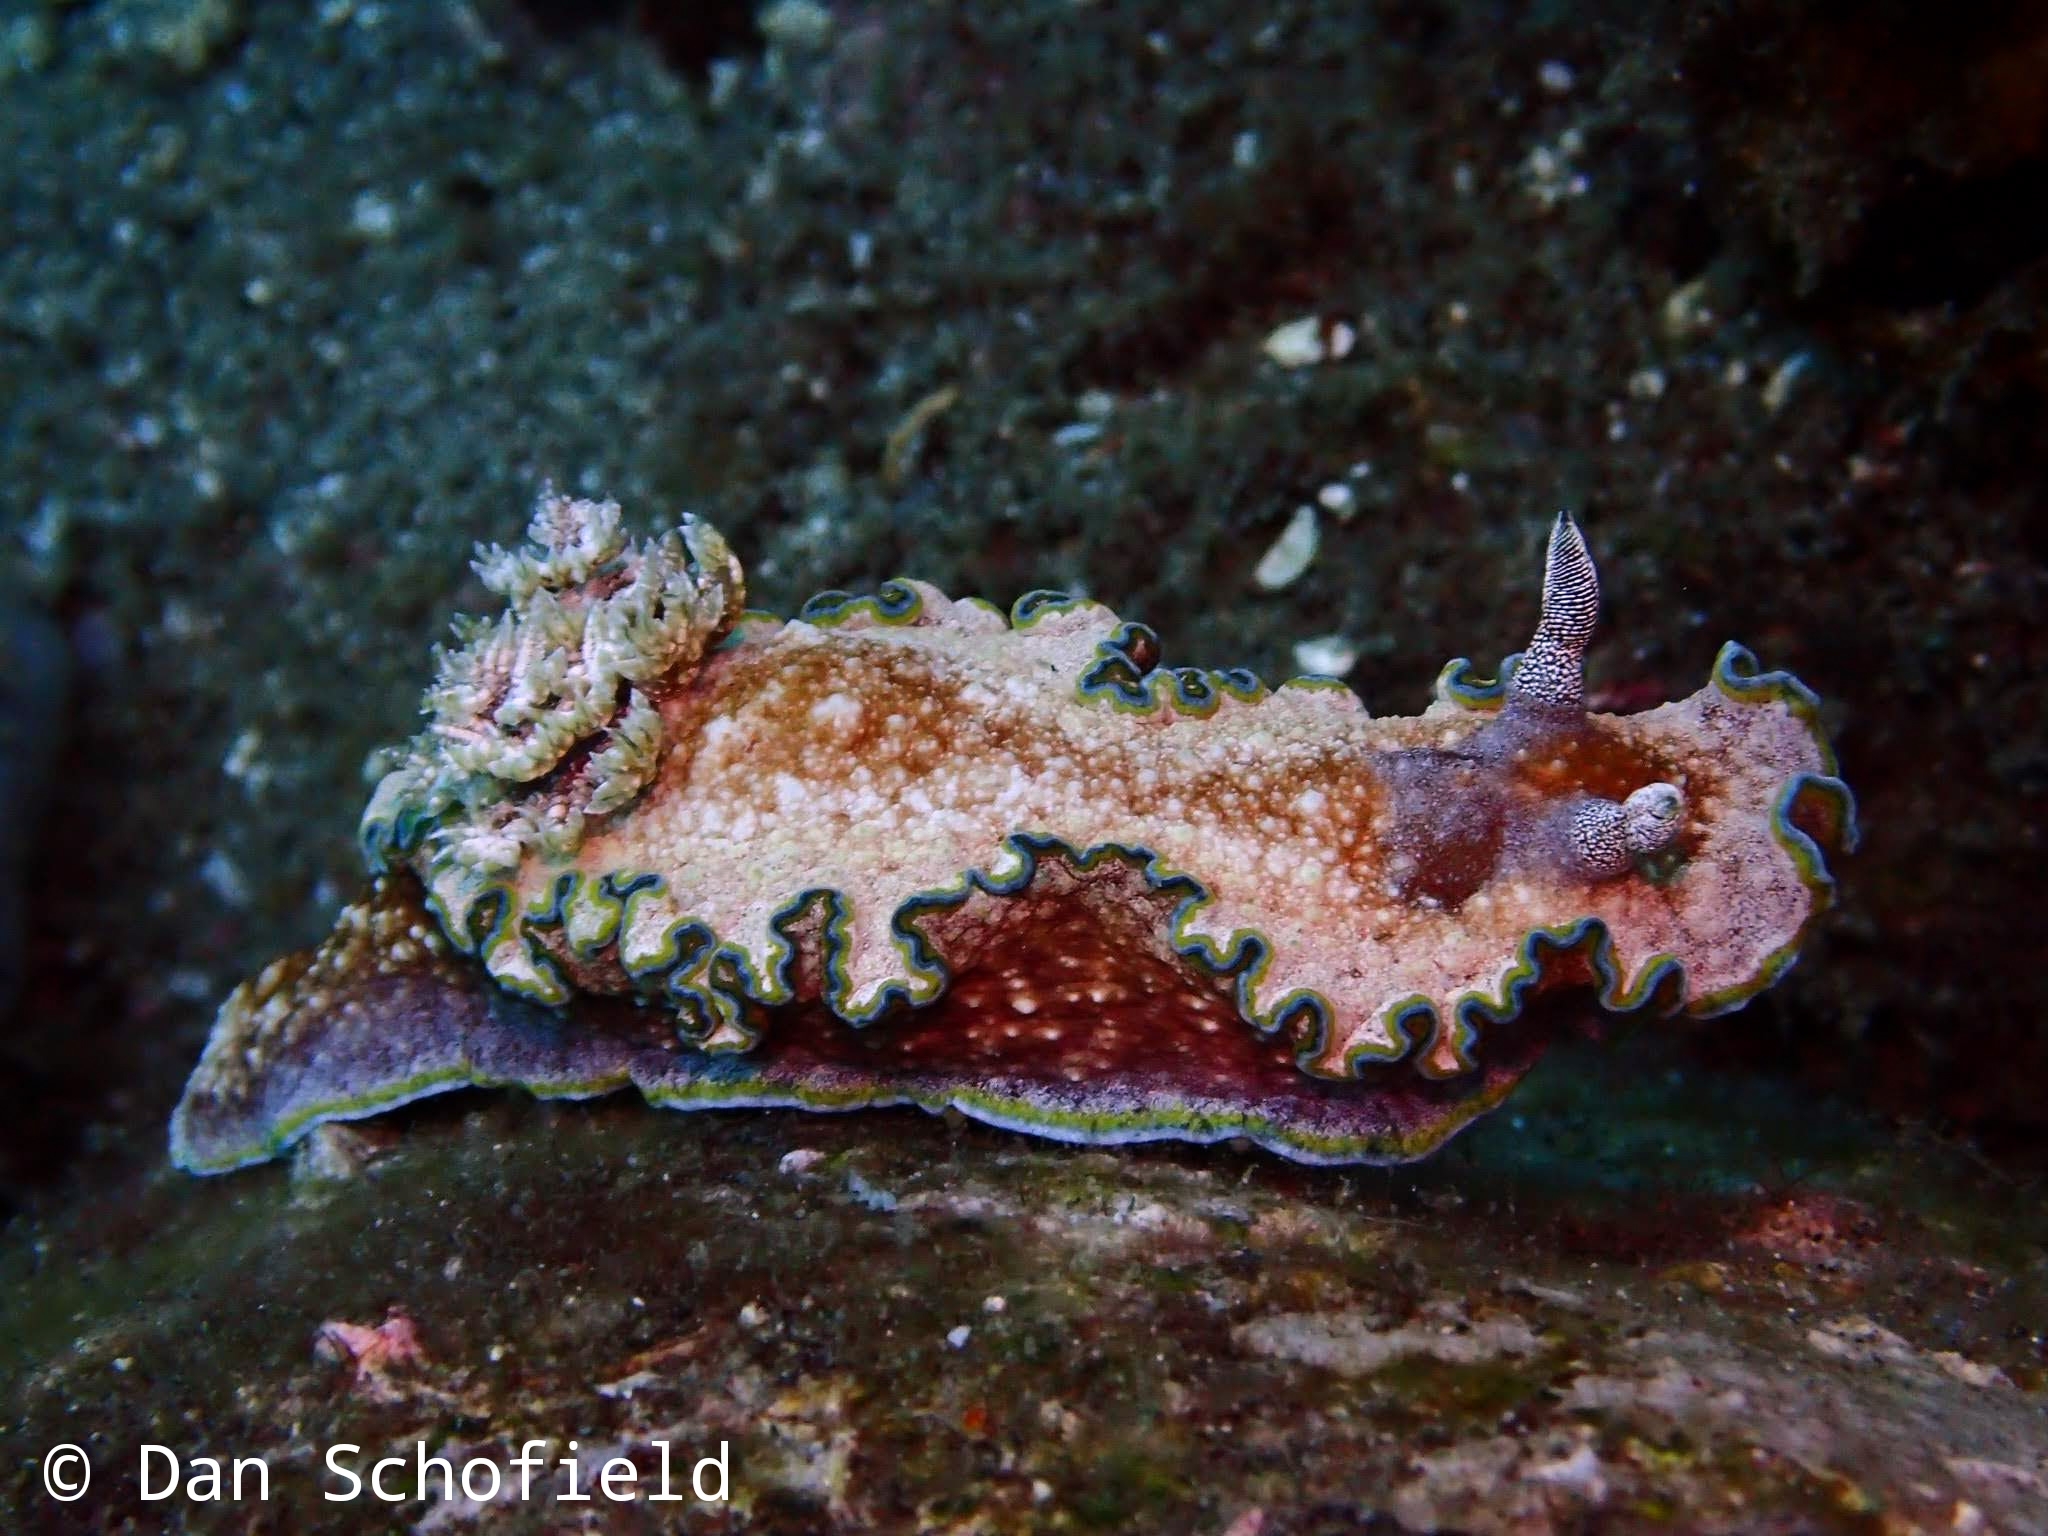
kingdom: Animalia
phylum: Mollusca
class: Gastropoda
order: Nudibranchia
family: Chromodorididae
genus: Glossodoris
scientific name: Glossodoris acosti
